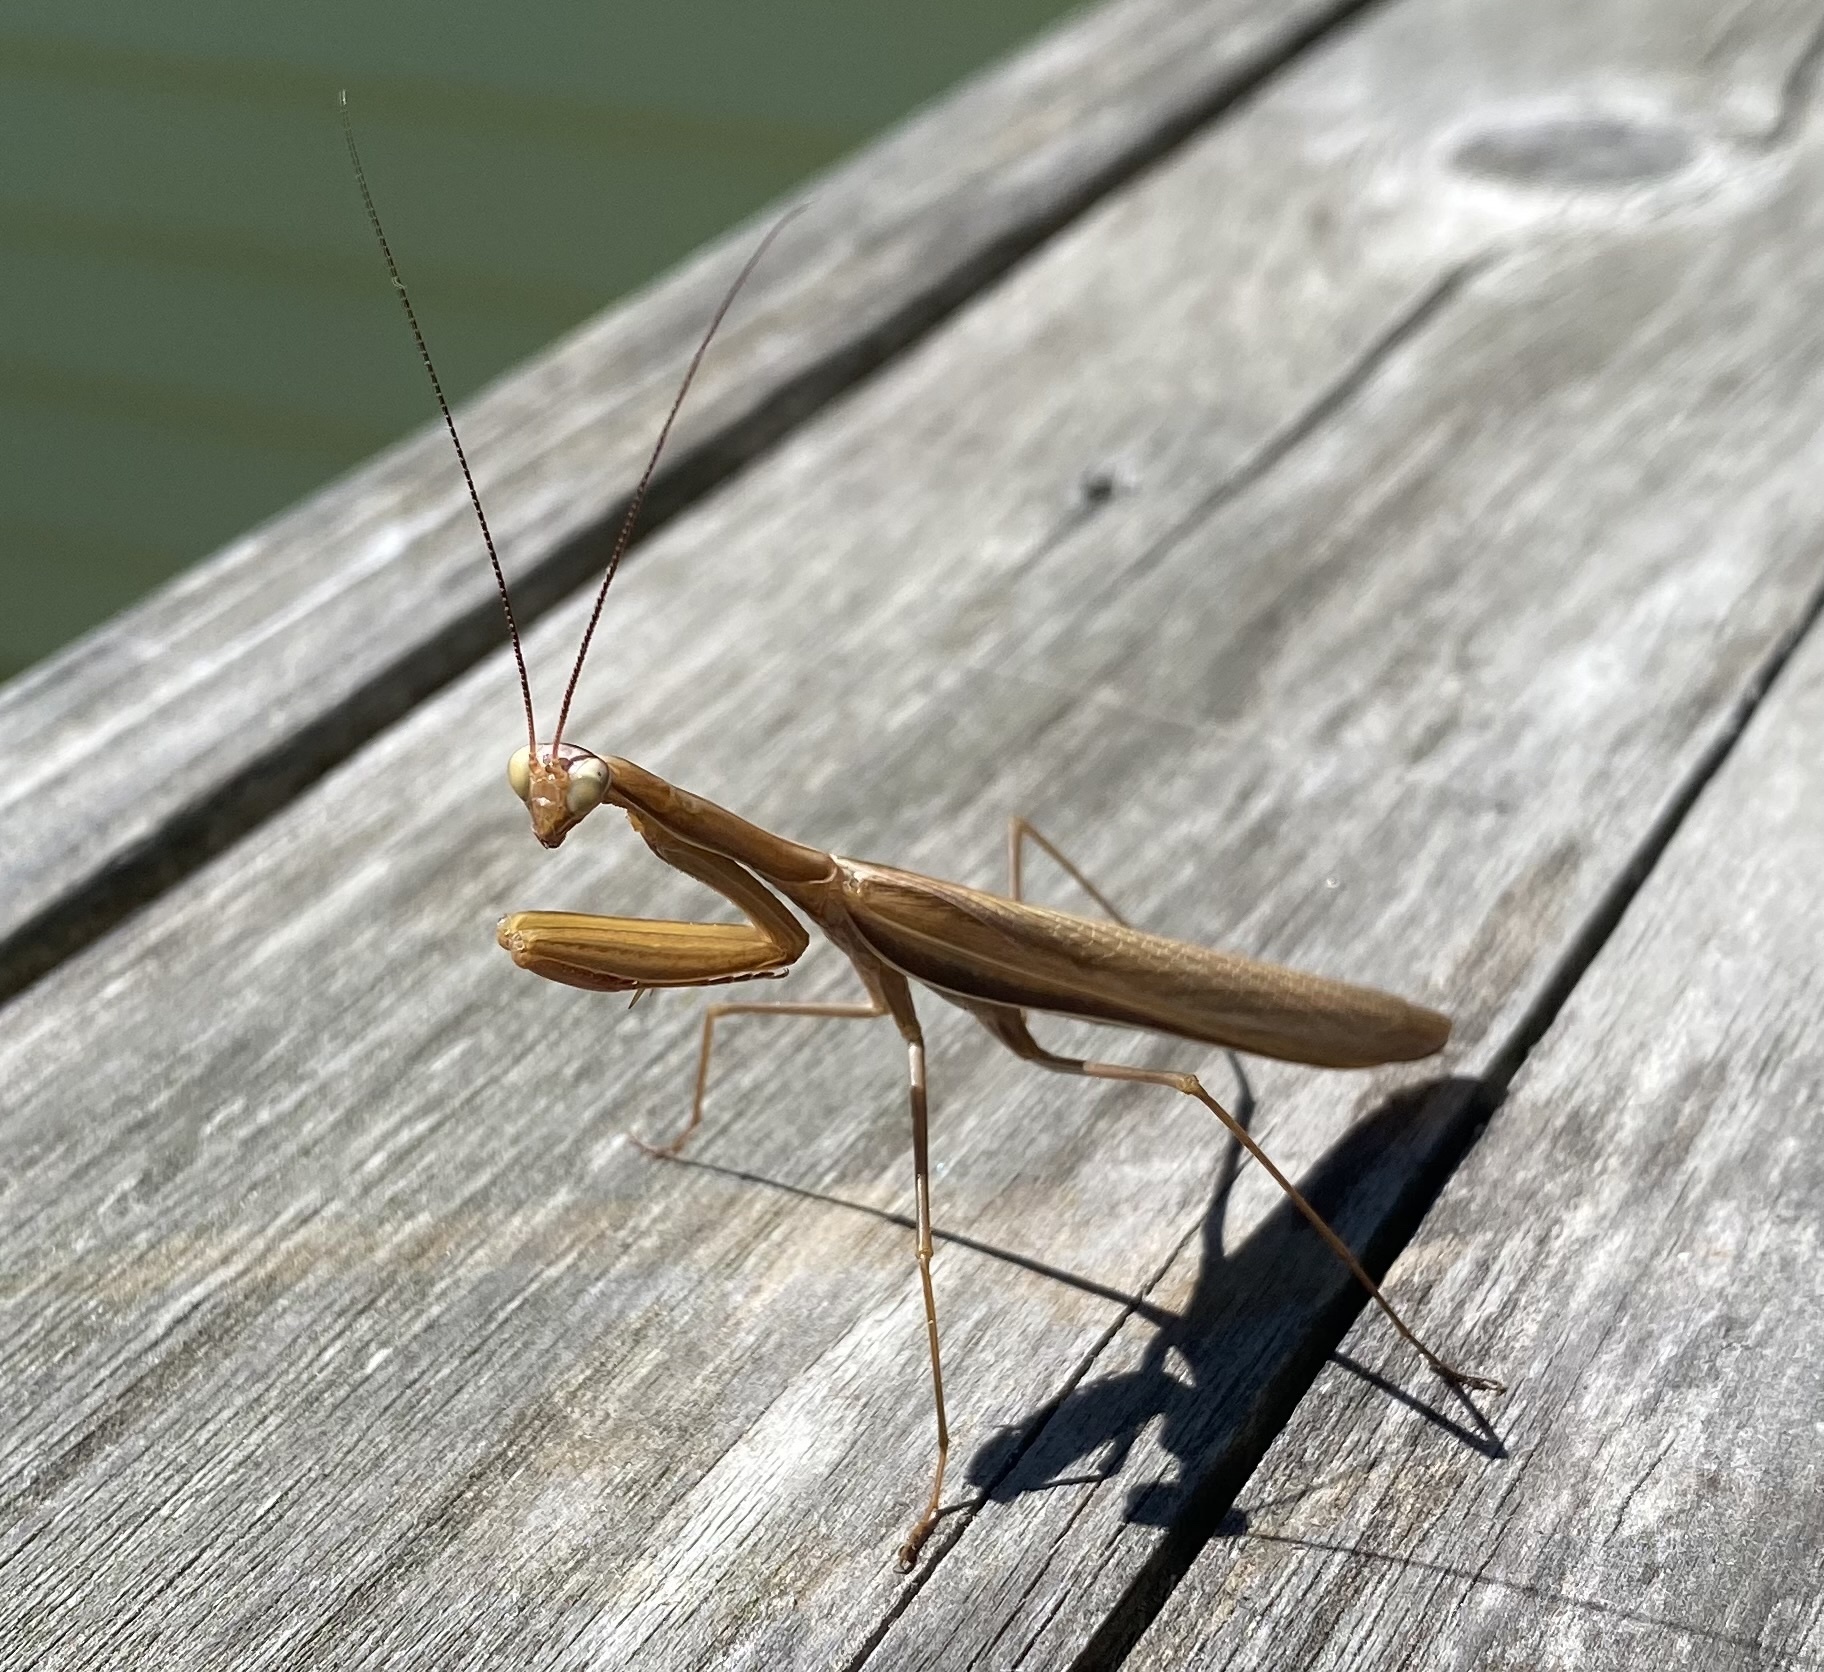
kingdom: Animalia
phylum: Arthropoda
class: Insecta
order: Mantodea
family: Mantidae
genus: Mantis
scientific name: Mantis religiosa
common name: Praying mantis
